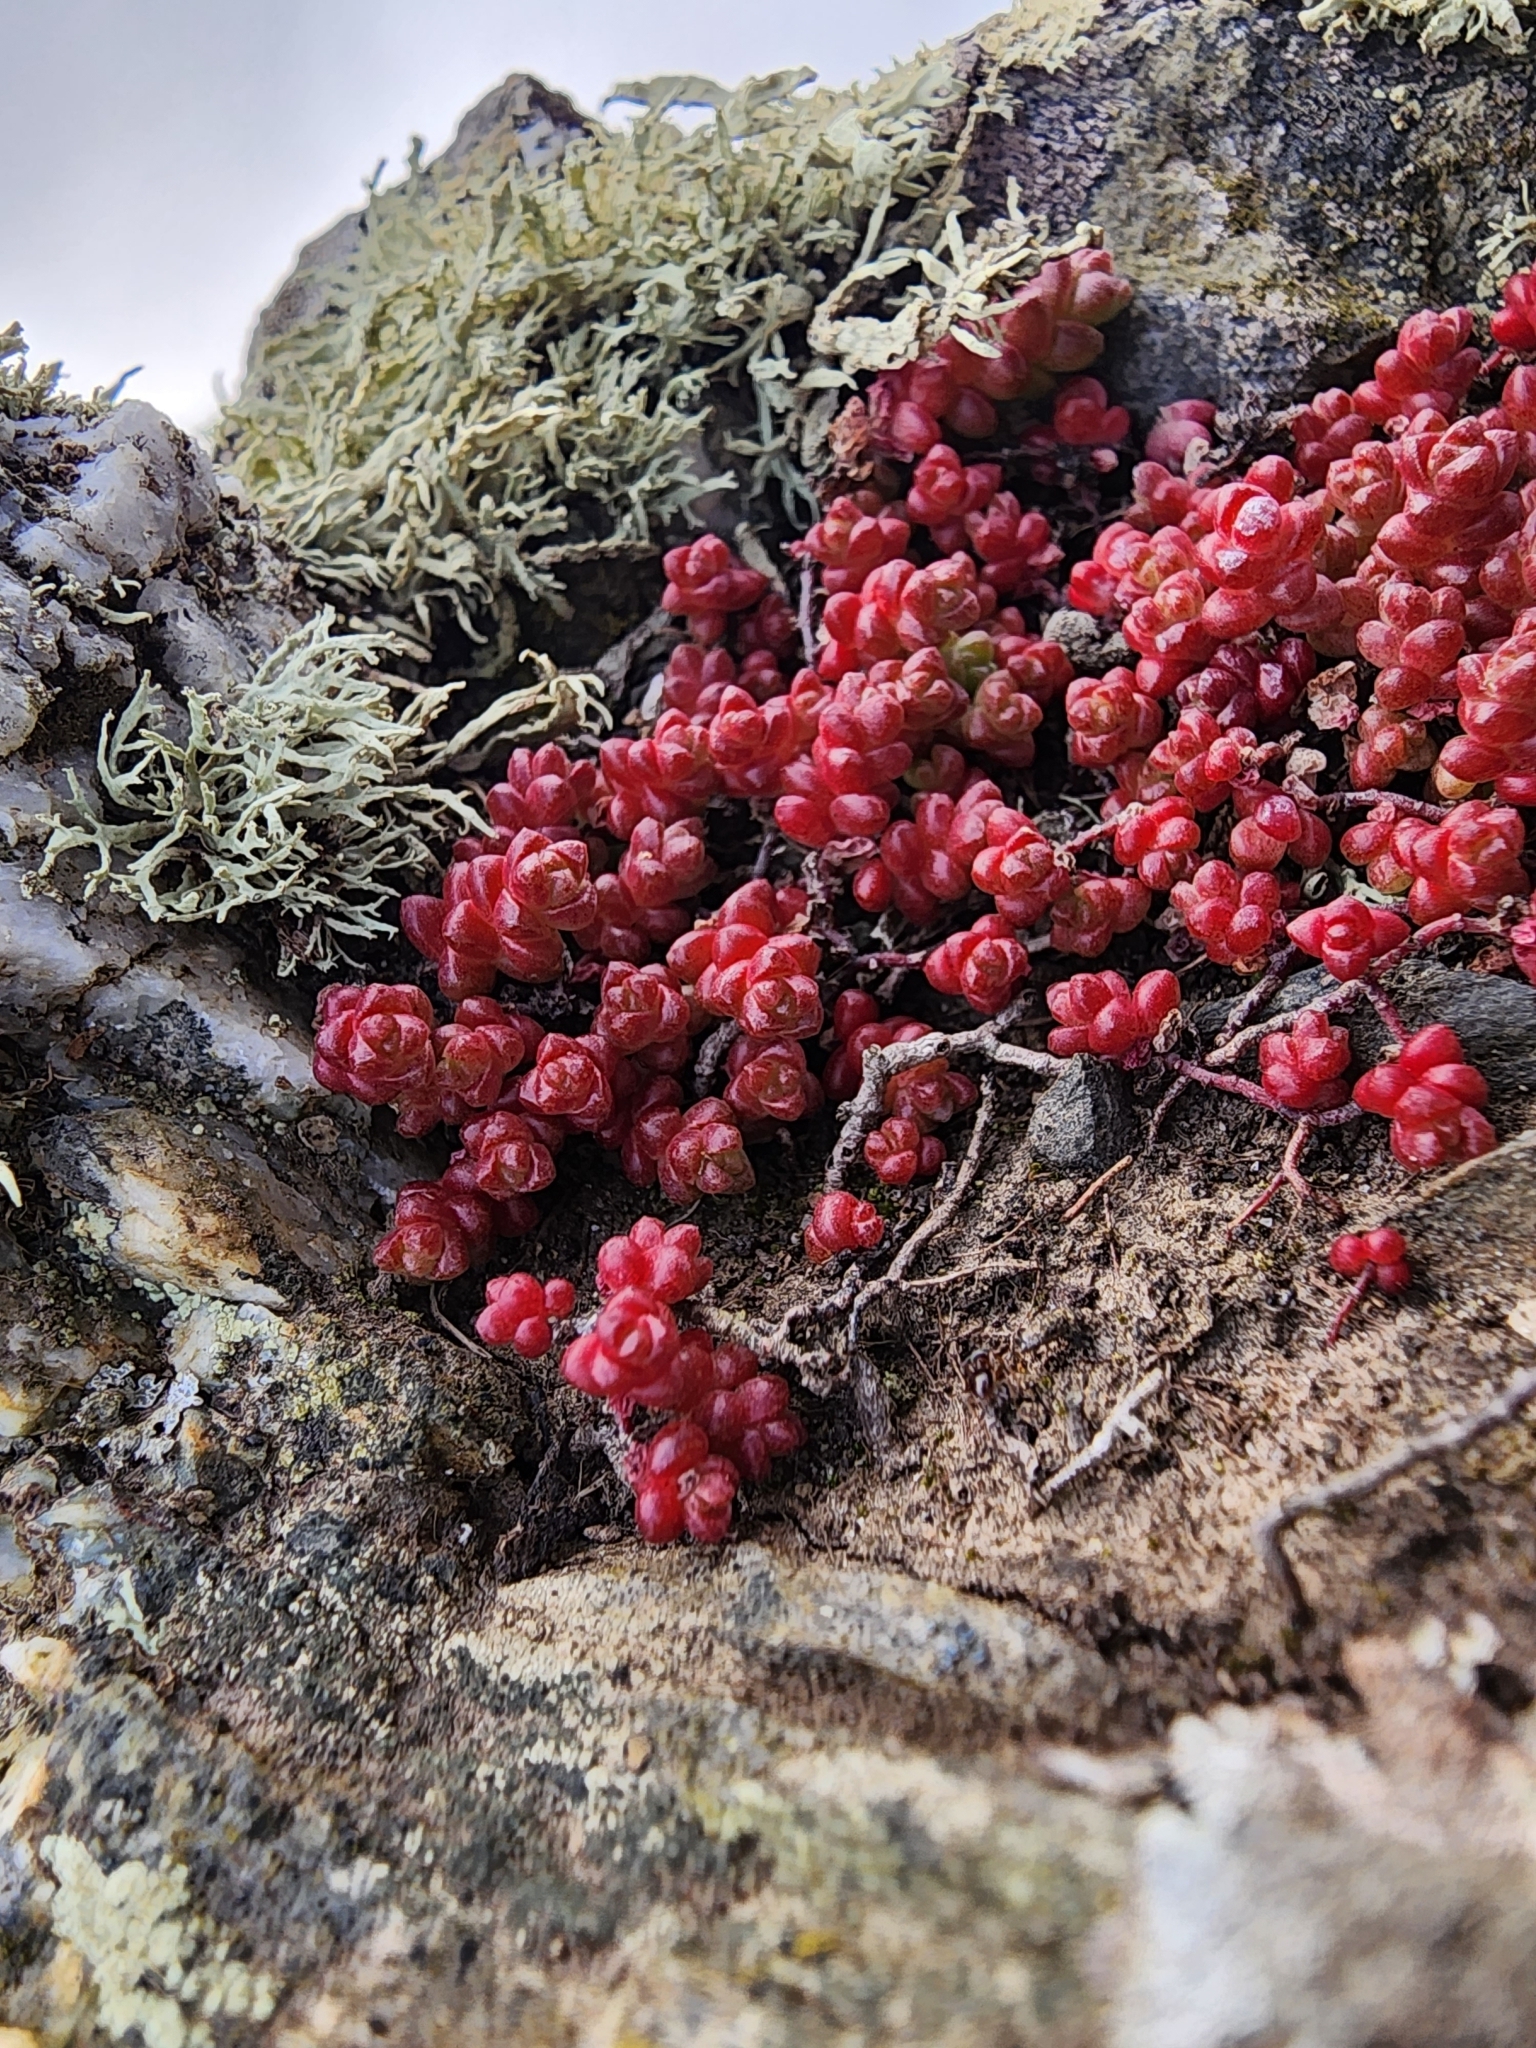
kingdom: Plantae
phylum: Tracheophyta
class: Magnoliopsida
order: Saxifragales
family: Crassulaceae
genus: Sedum
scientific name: Sedum anglicum
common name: English stonecrop
